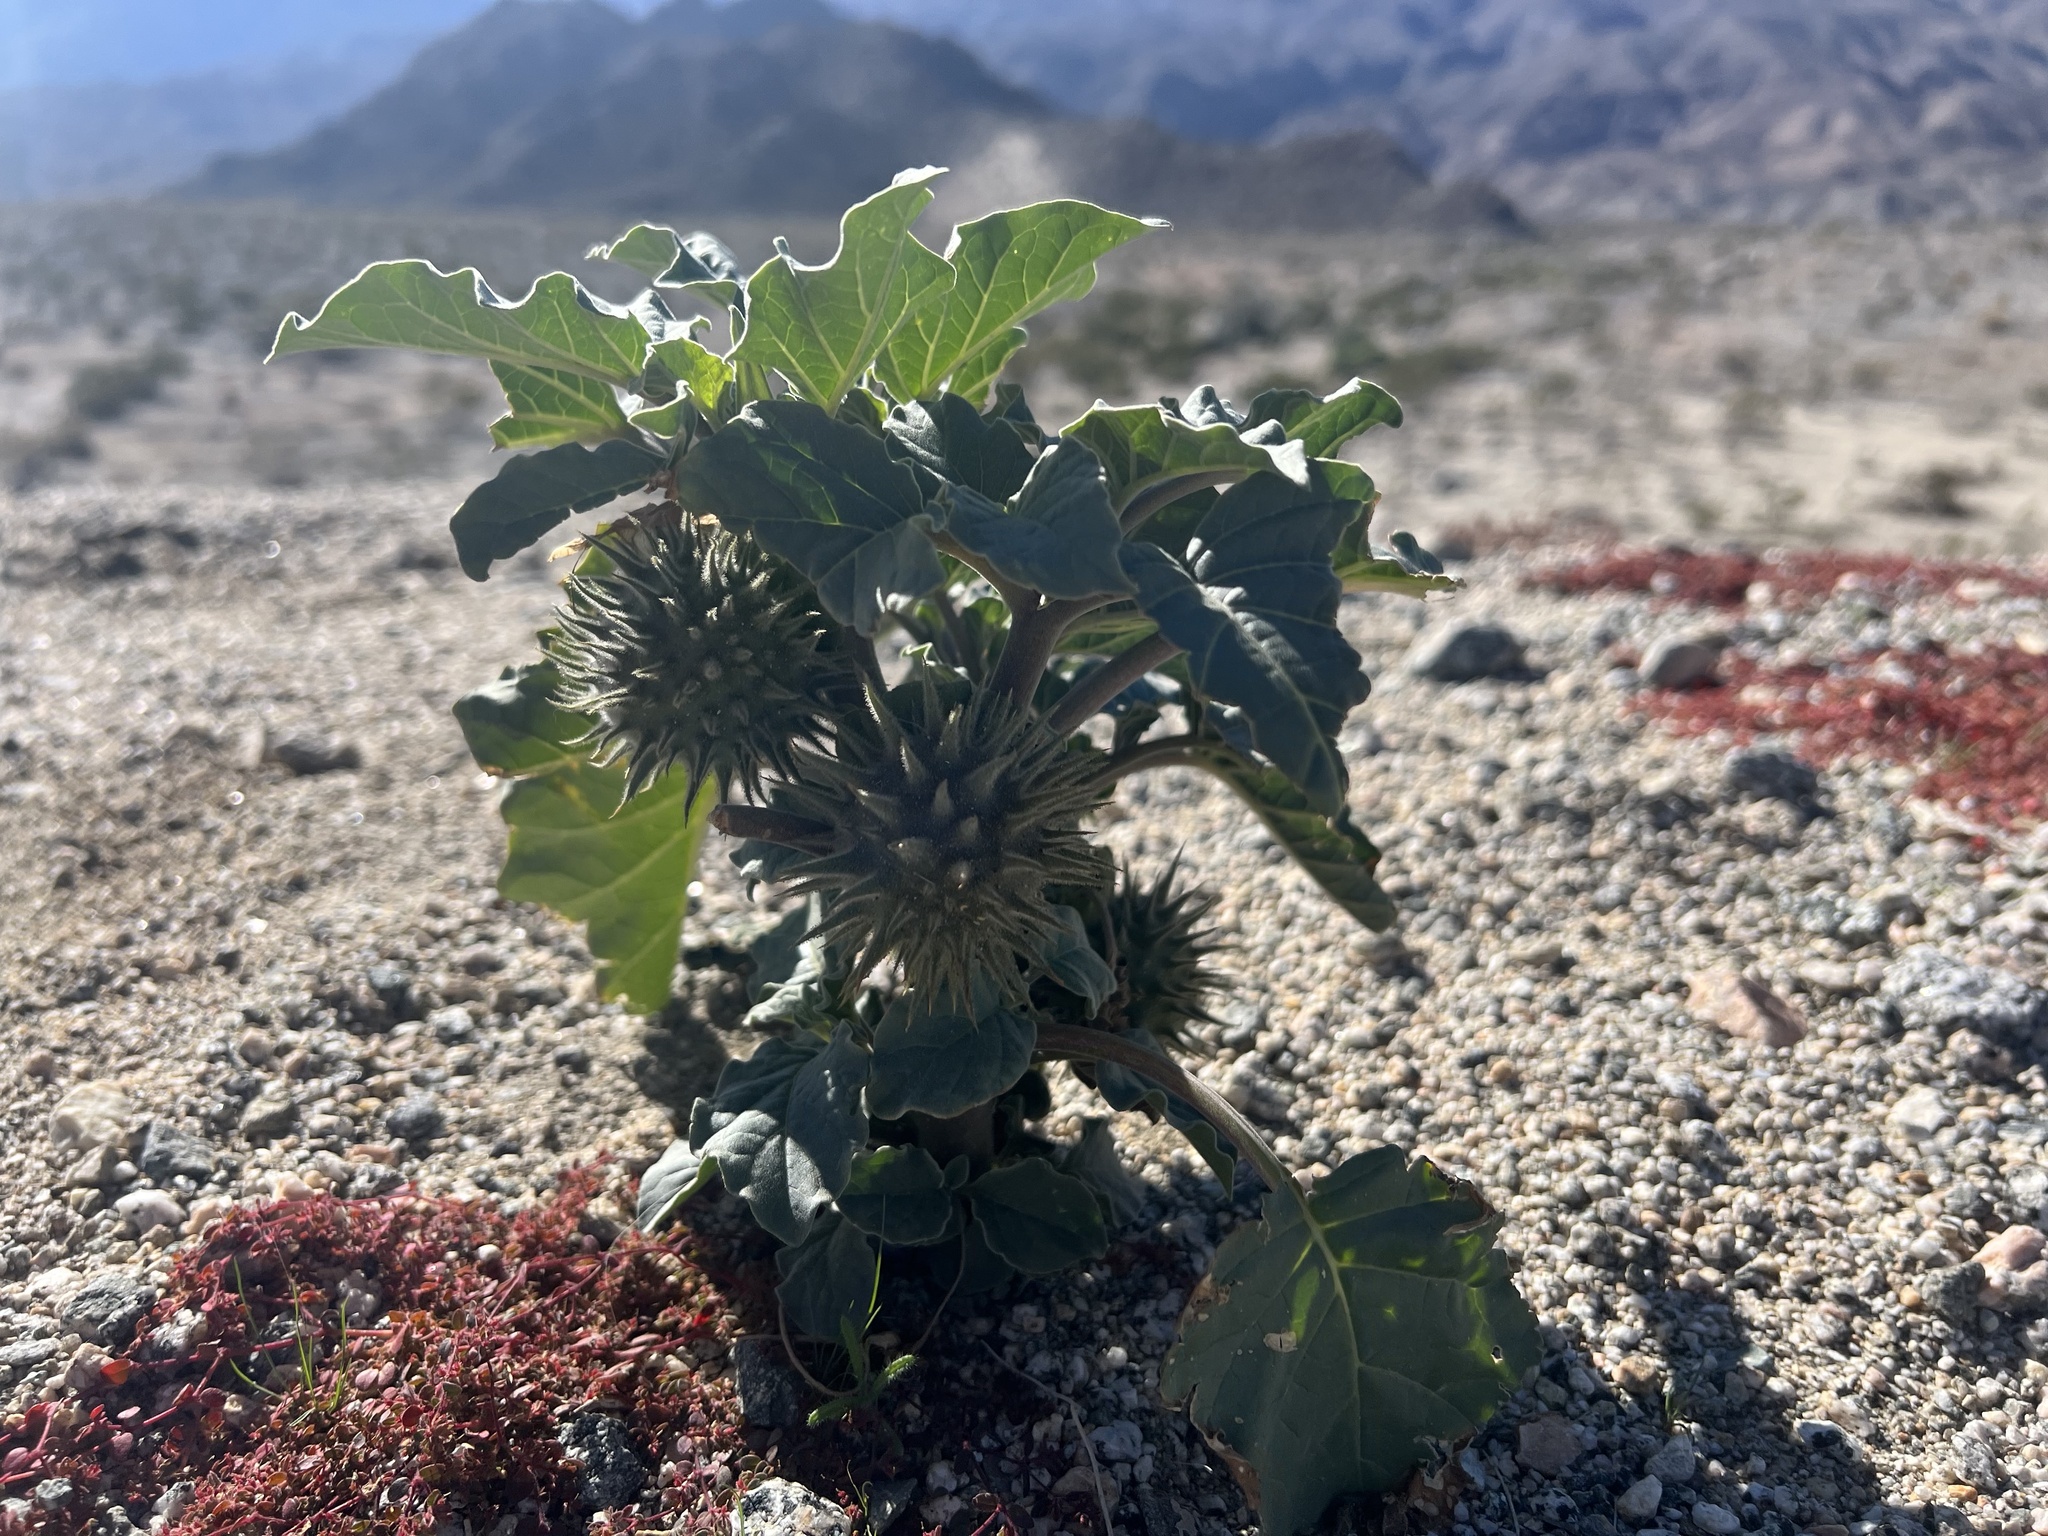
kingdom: Plantae
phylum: Tracheophyta
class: Magnoliopsida
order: Solanales
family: Solanaceae
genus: Datura
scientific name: Datura discolor
